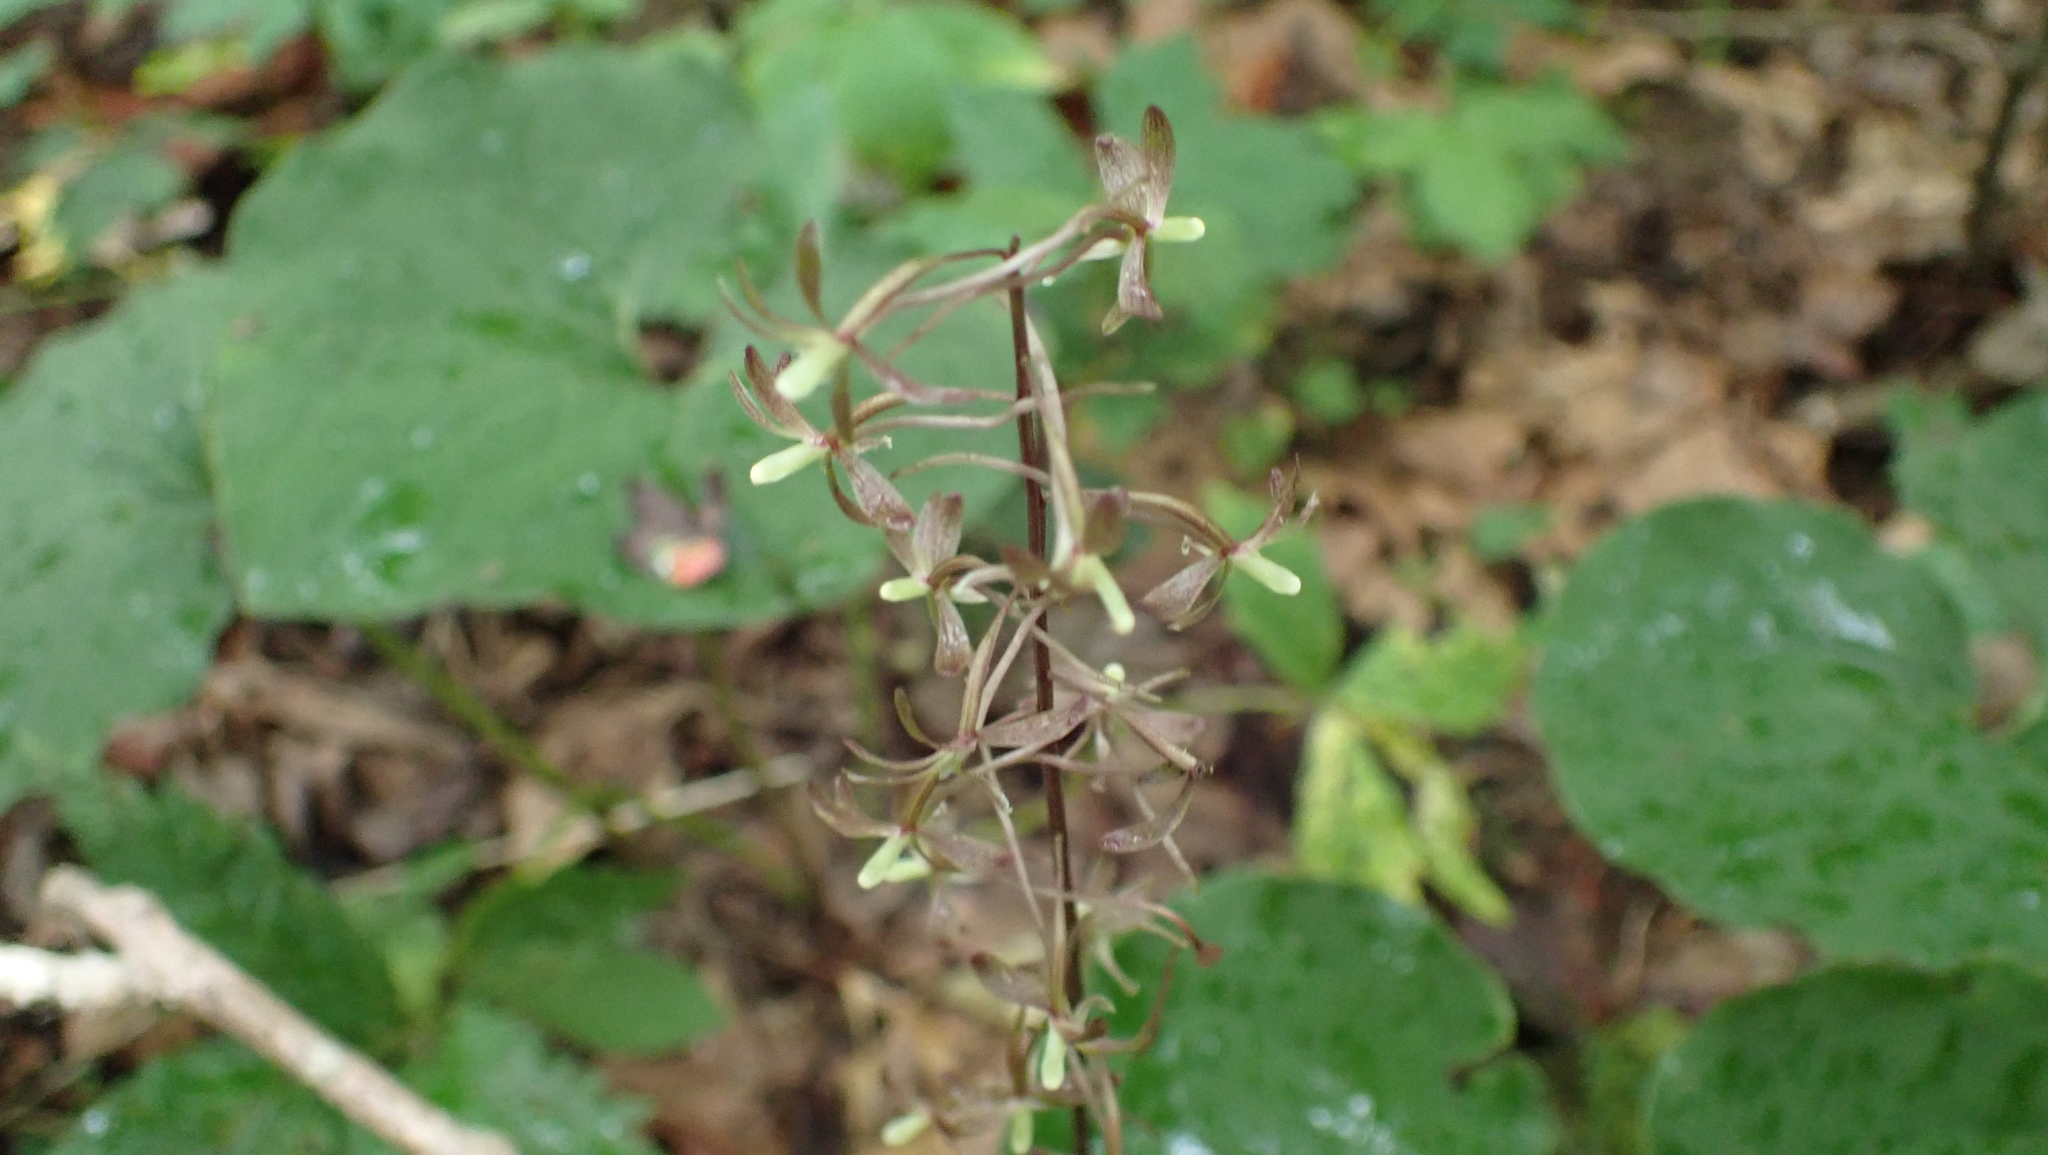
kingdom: Plantae
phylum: Tracheophyta
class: Liliopsida
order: Asparagales
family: Orchidaceae
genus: Tipularia
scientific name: Tipularia discolor
